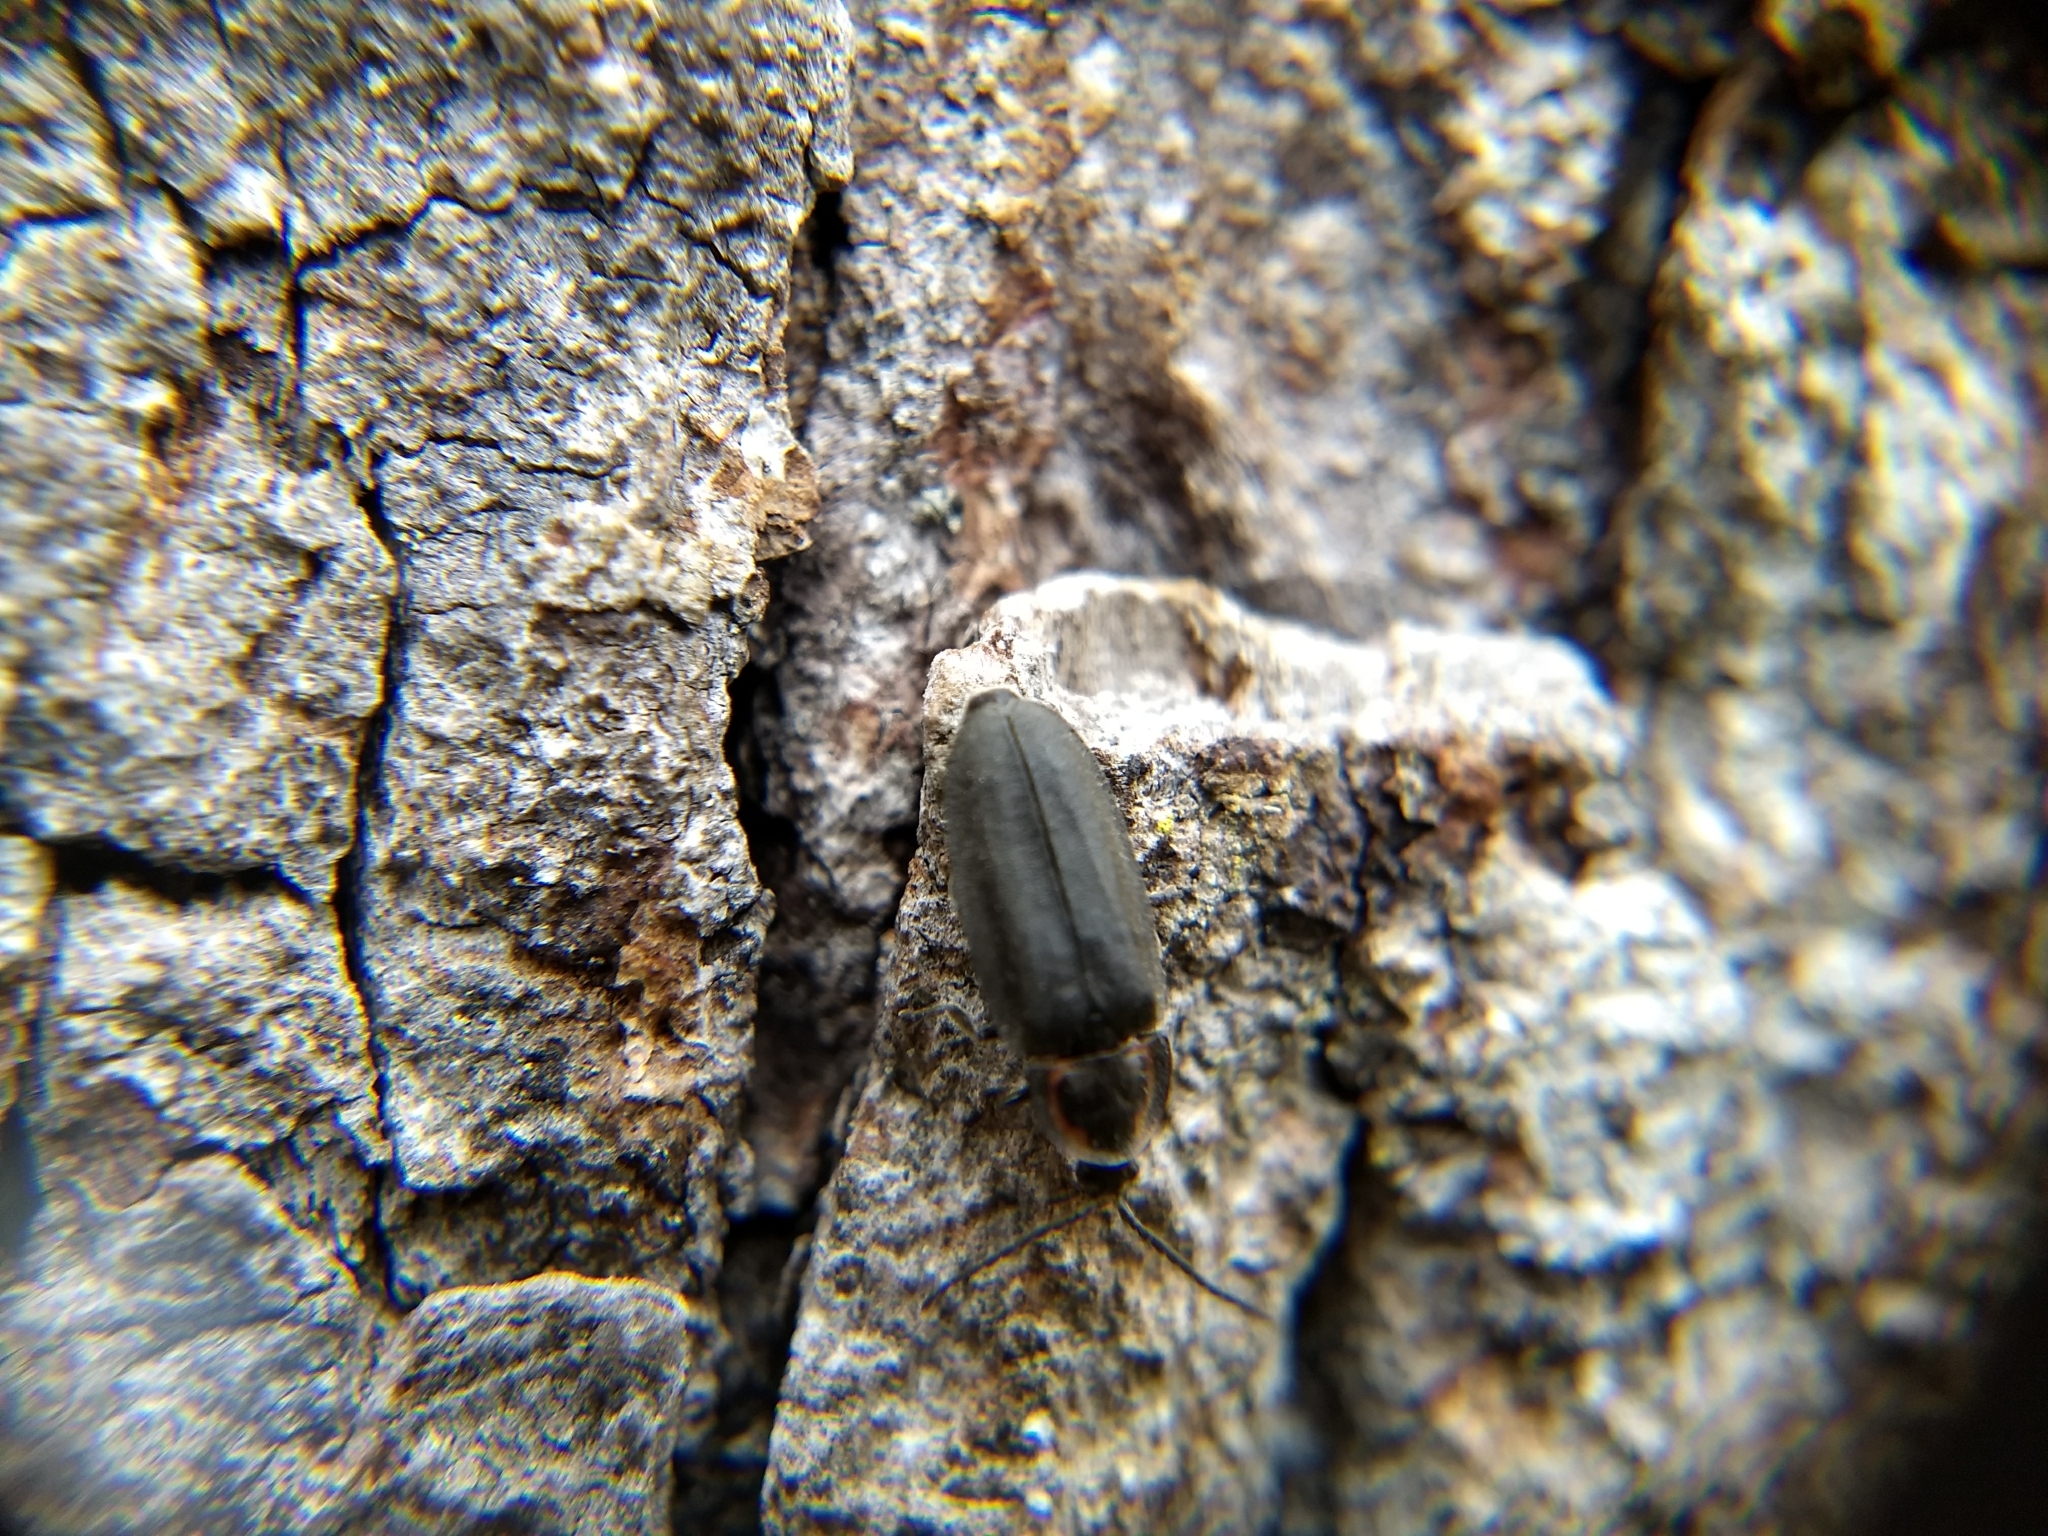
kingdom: Animalia
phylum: Arthropoda
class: Insecta
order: Coleoptera
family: Lampyridae
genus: Photinus
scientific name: Photinus corrusca
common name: Winter firefly
